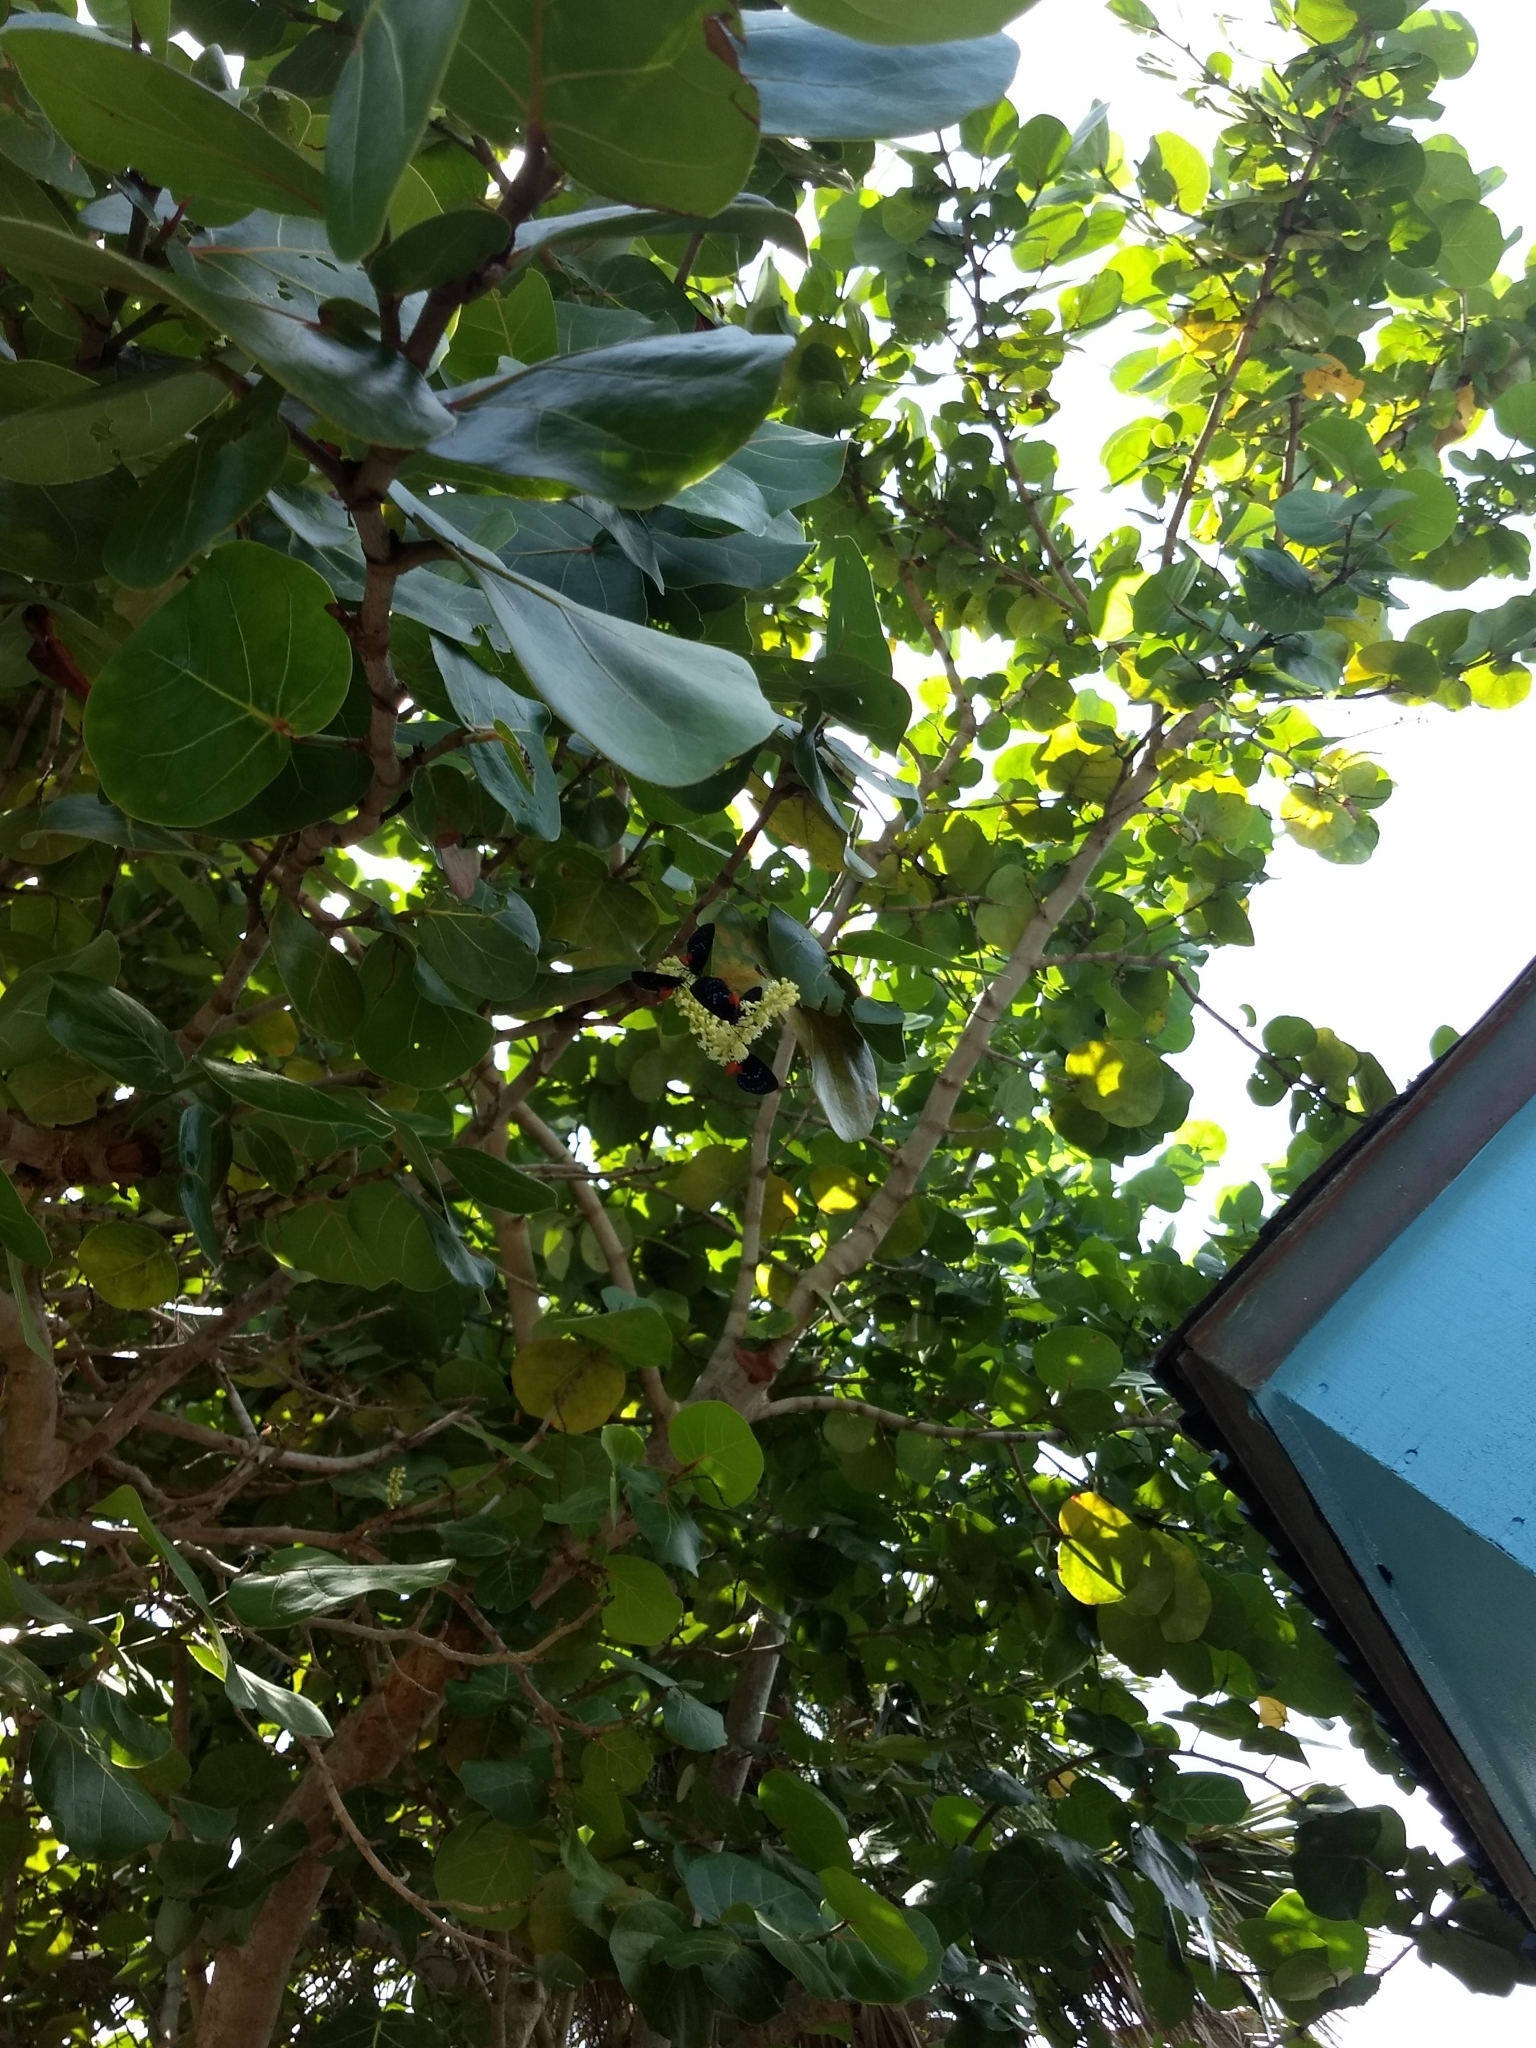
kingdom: Animalia
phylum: Arthropoda
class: Insecta
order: Lepidoptera
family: Lycaenidae
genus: Eumaeus
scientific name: Eumaeus atala
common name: Atala
